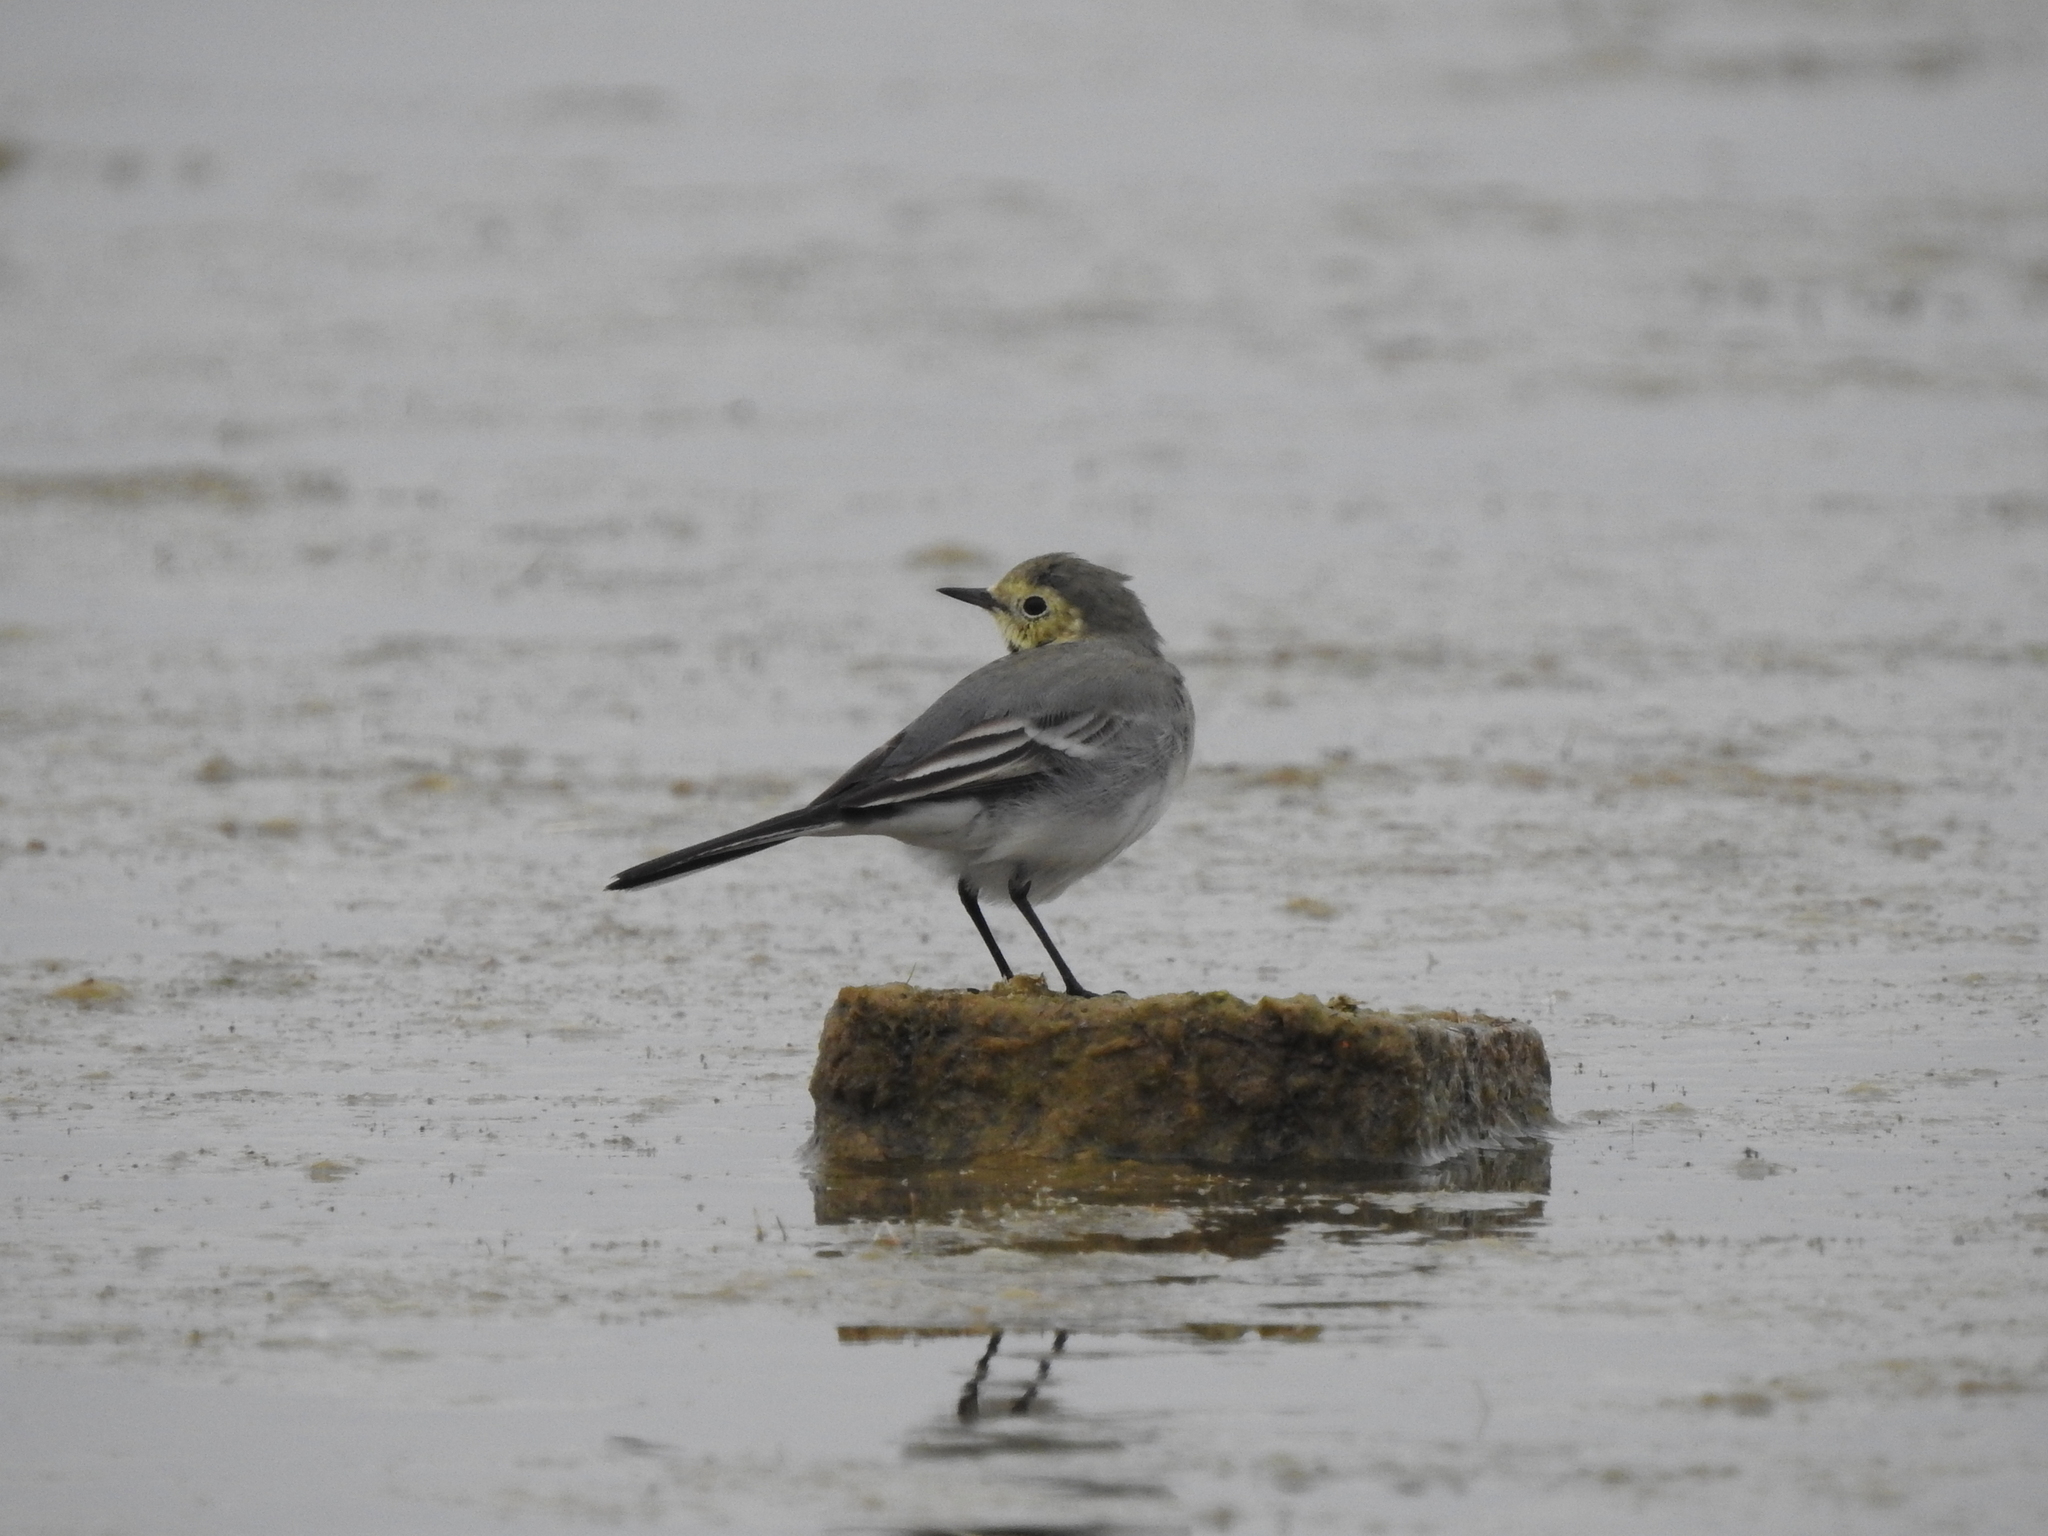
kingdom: Animalia
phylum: Chordata
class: Aves
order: Passeriformes
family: Motacillidae
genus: Motacilla
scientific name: Motacilla alba
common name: White wagtail
